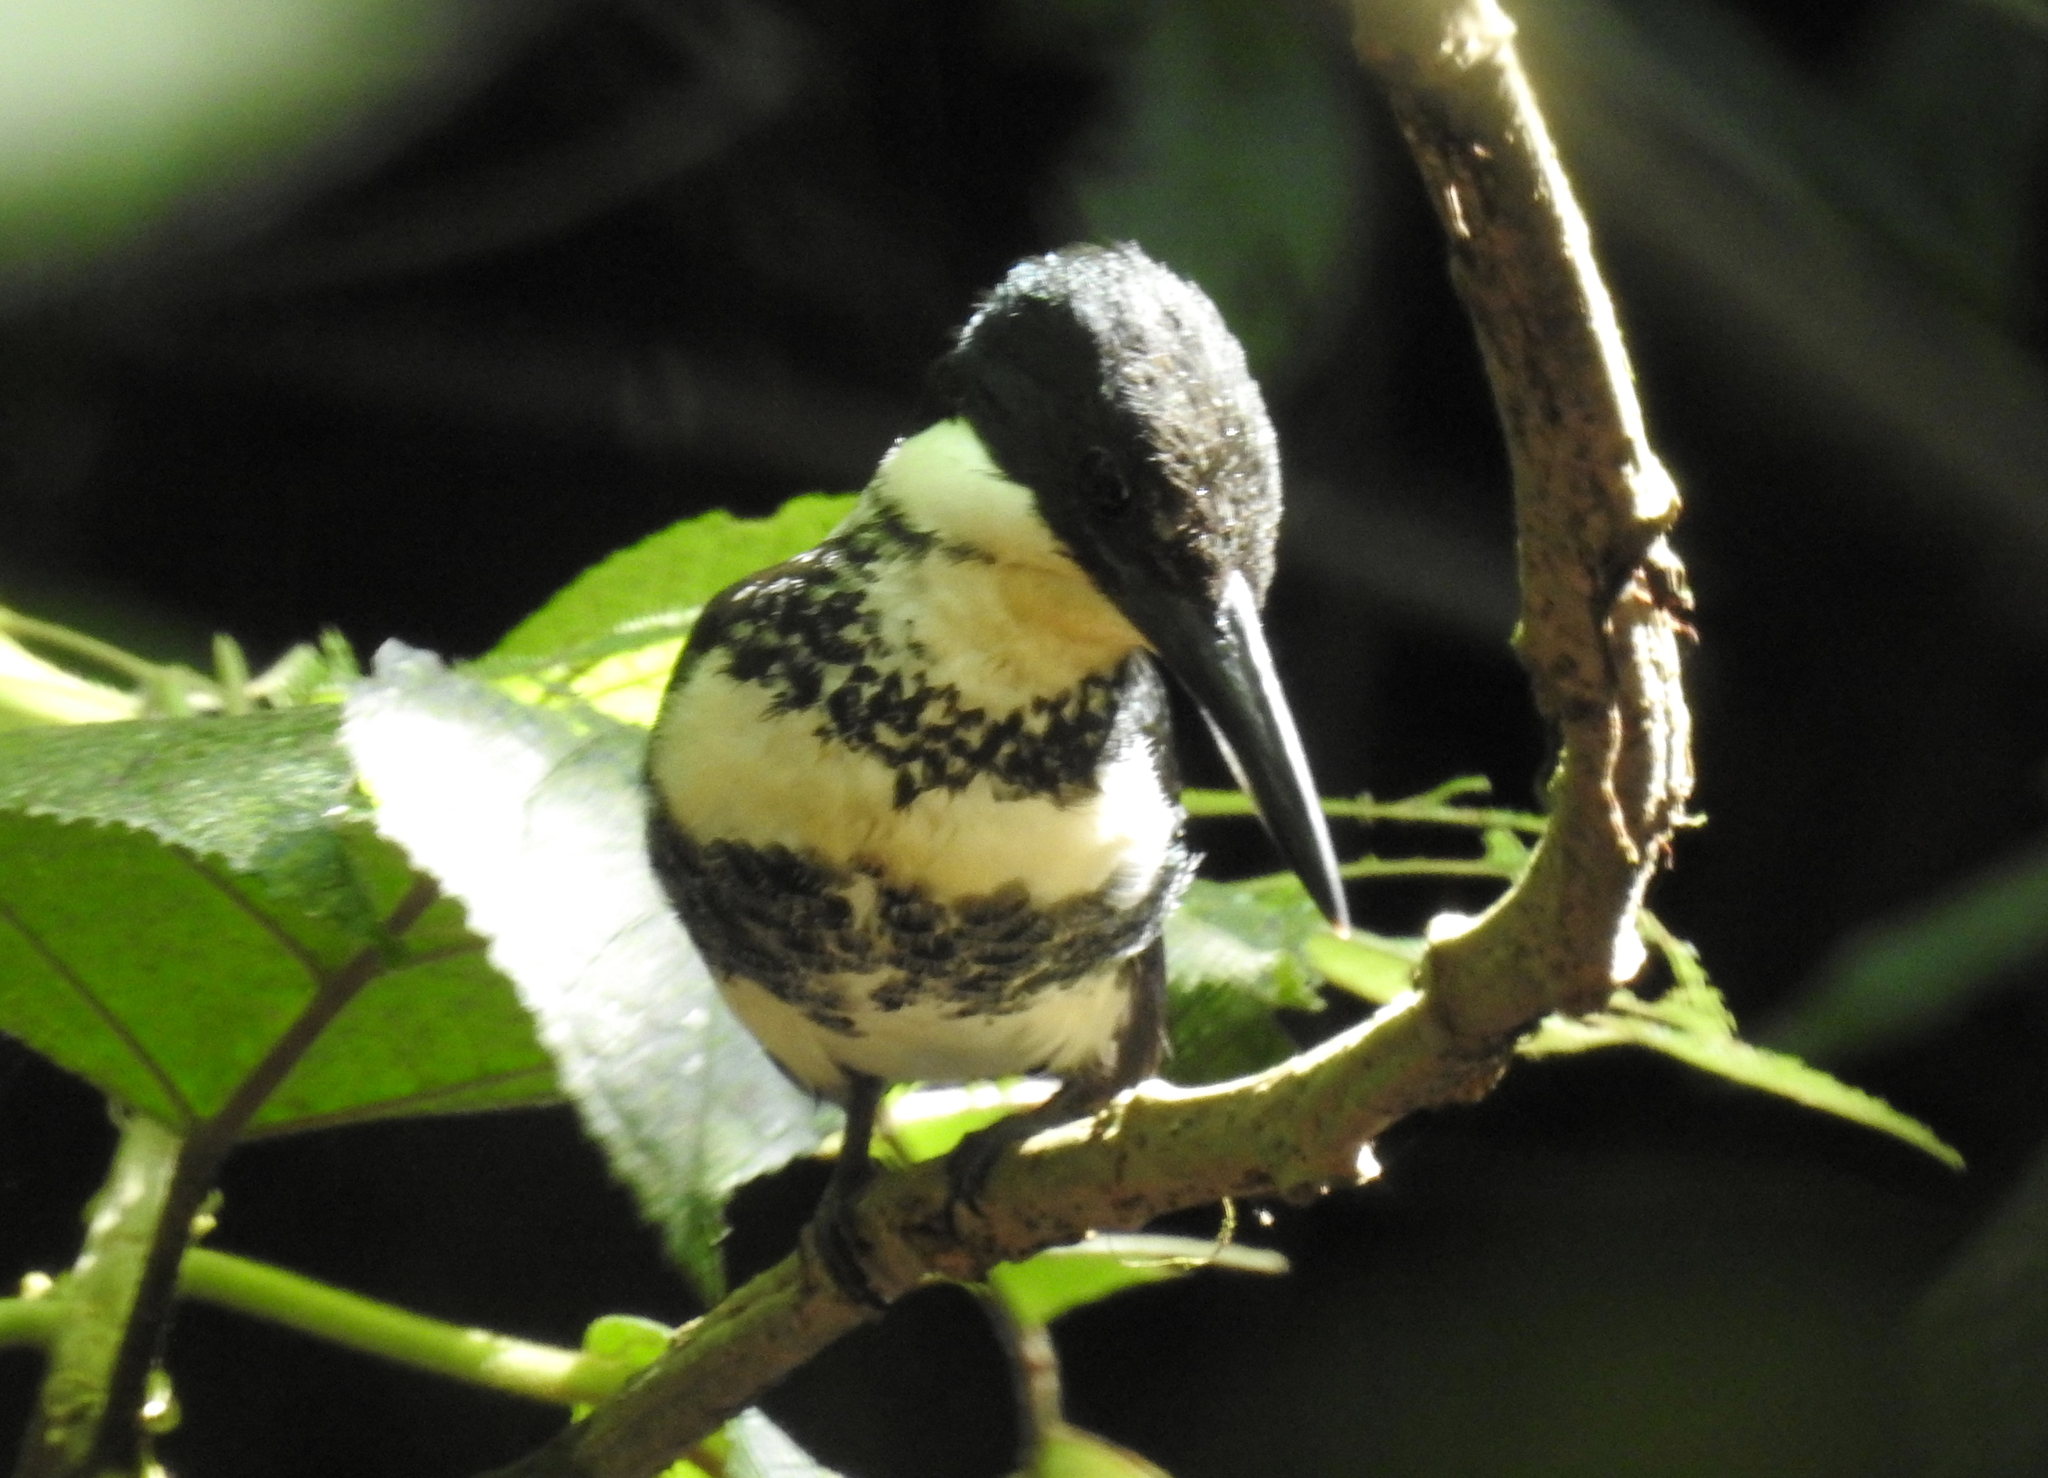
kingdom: Animalia
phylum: Chordata
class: Aves
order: Coraciiformes
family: Alcedinidae
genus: Chloroceryle
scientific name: Chloroceryle americana
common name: Green kingfisher
